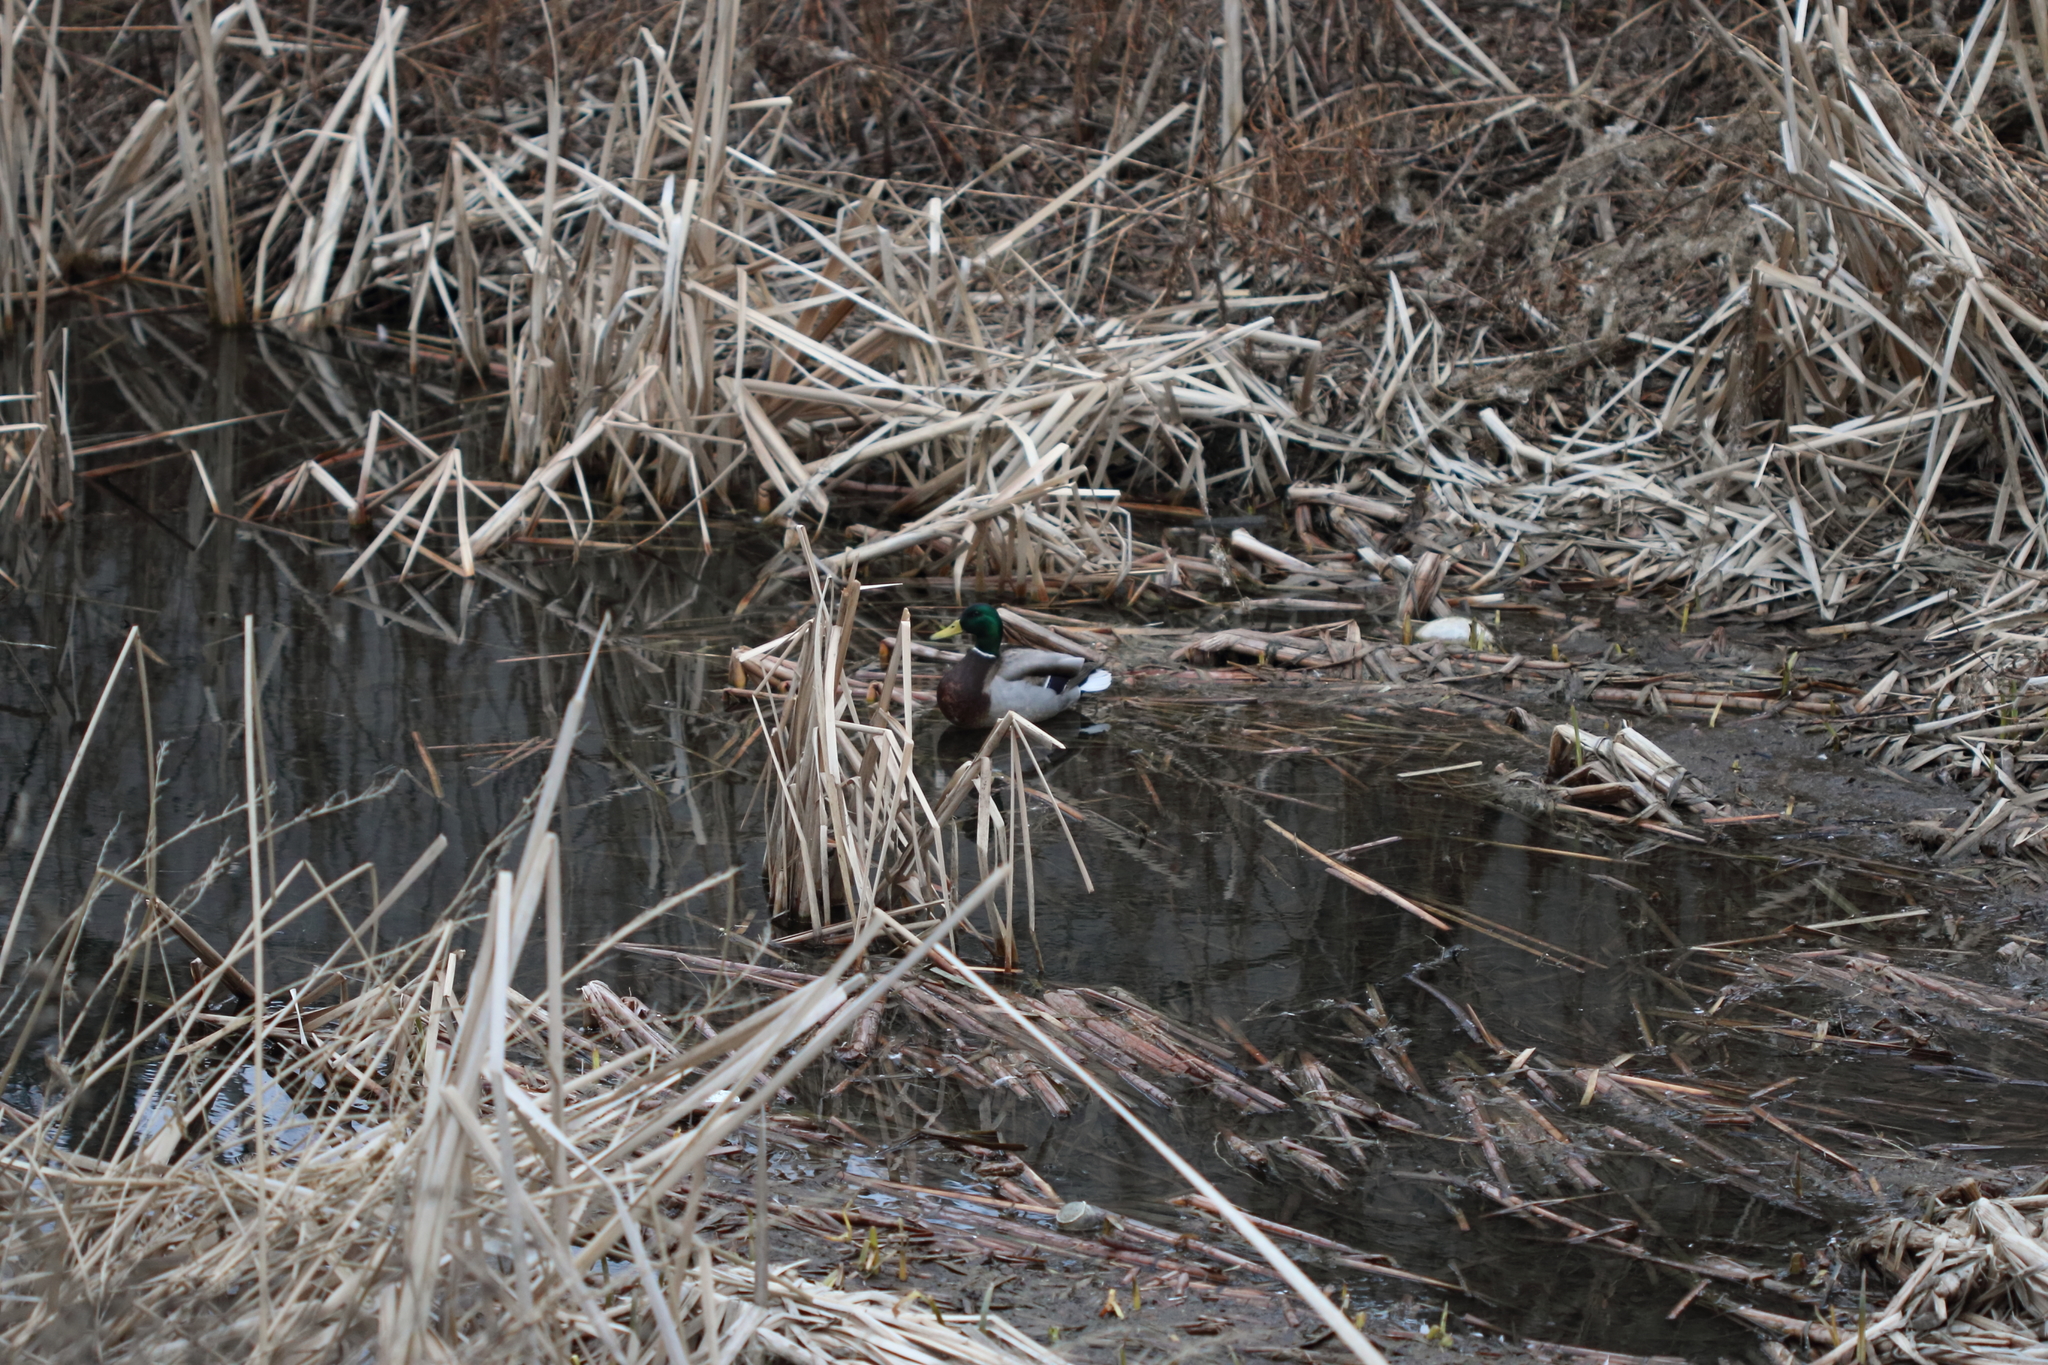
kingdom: Animalia
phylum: Chordata
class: Aves
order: Anseriformes
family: Anatidae
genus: Anas
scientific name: Anas platyrhynchos
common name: Mallard
